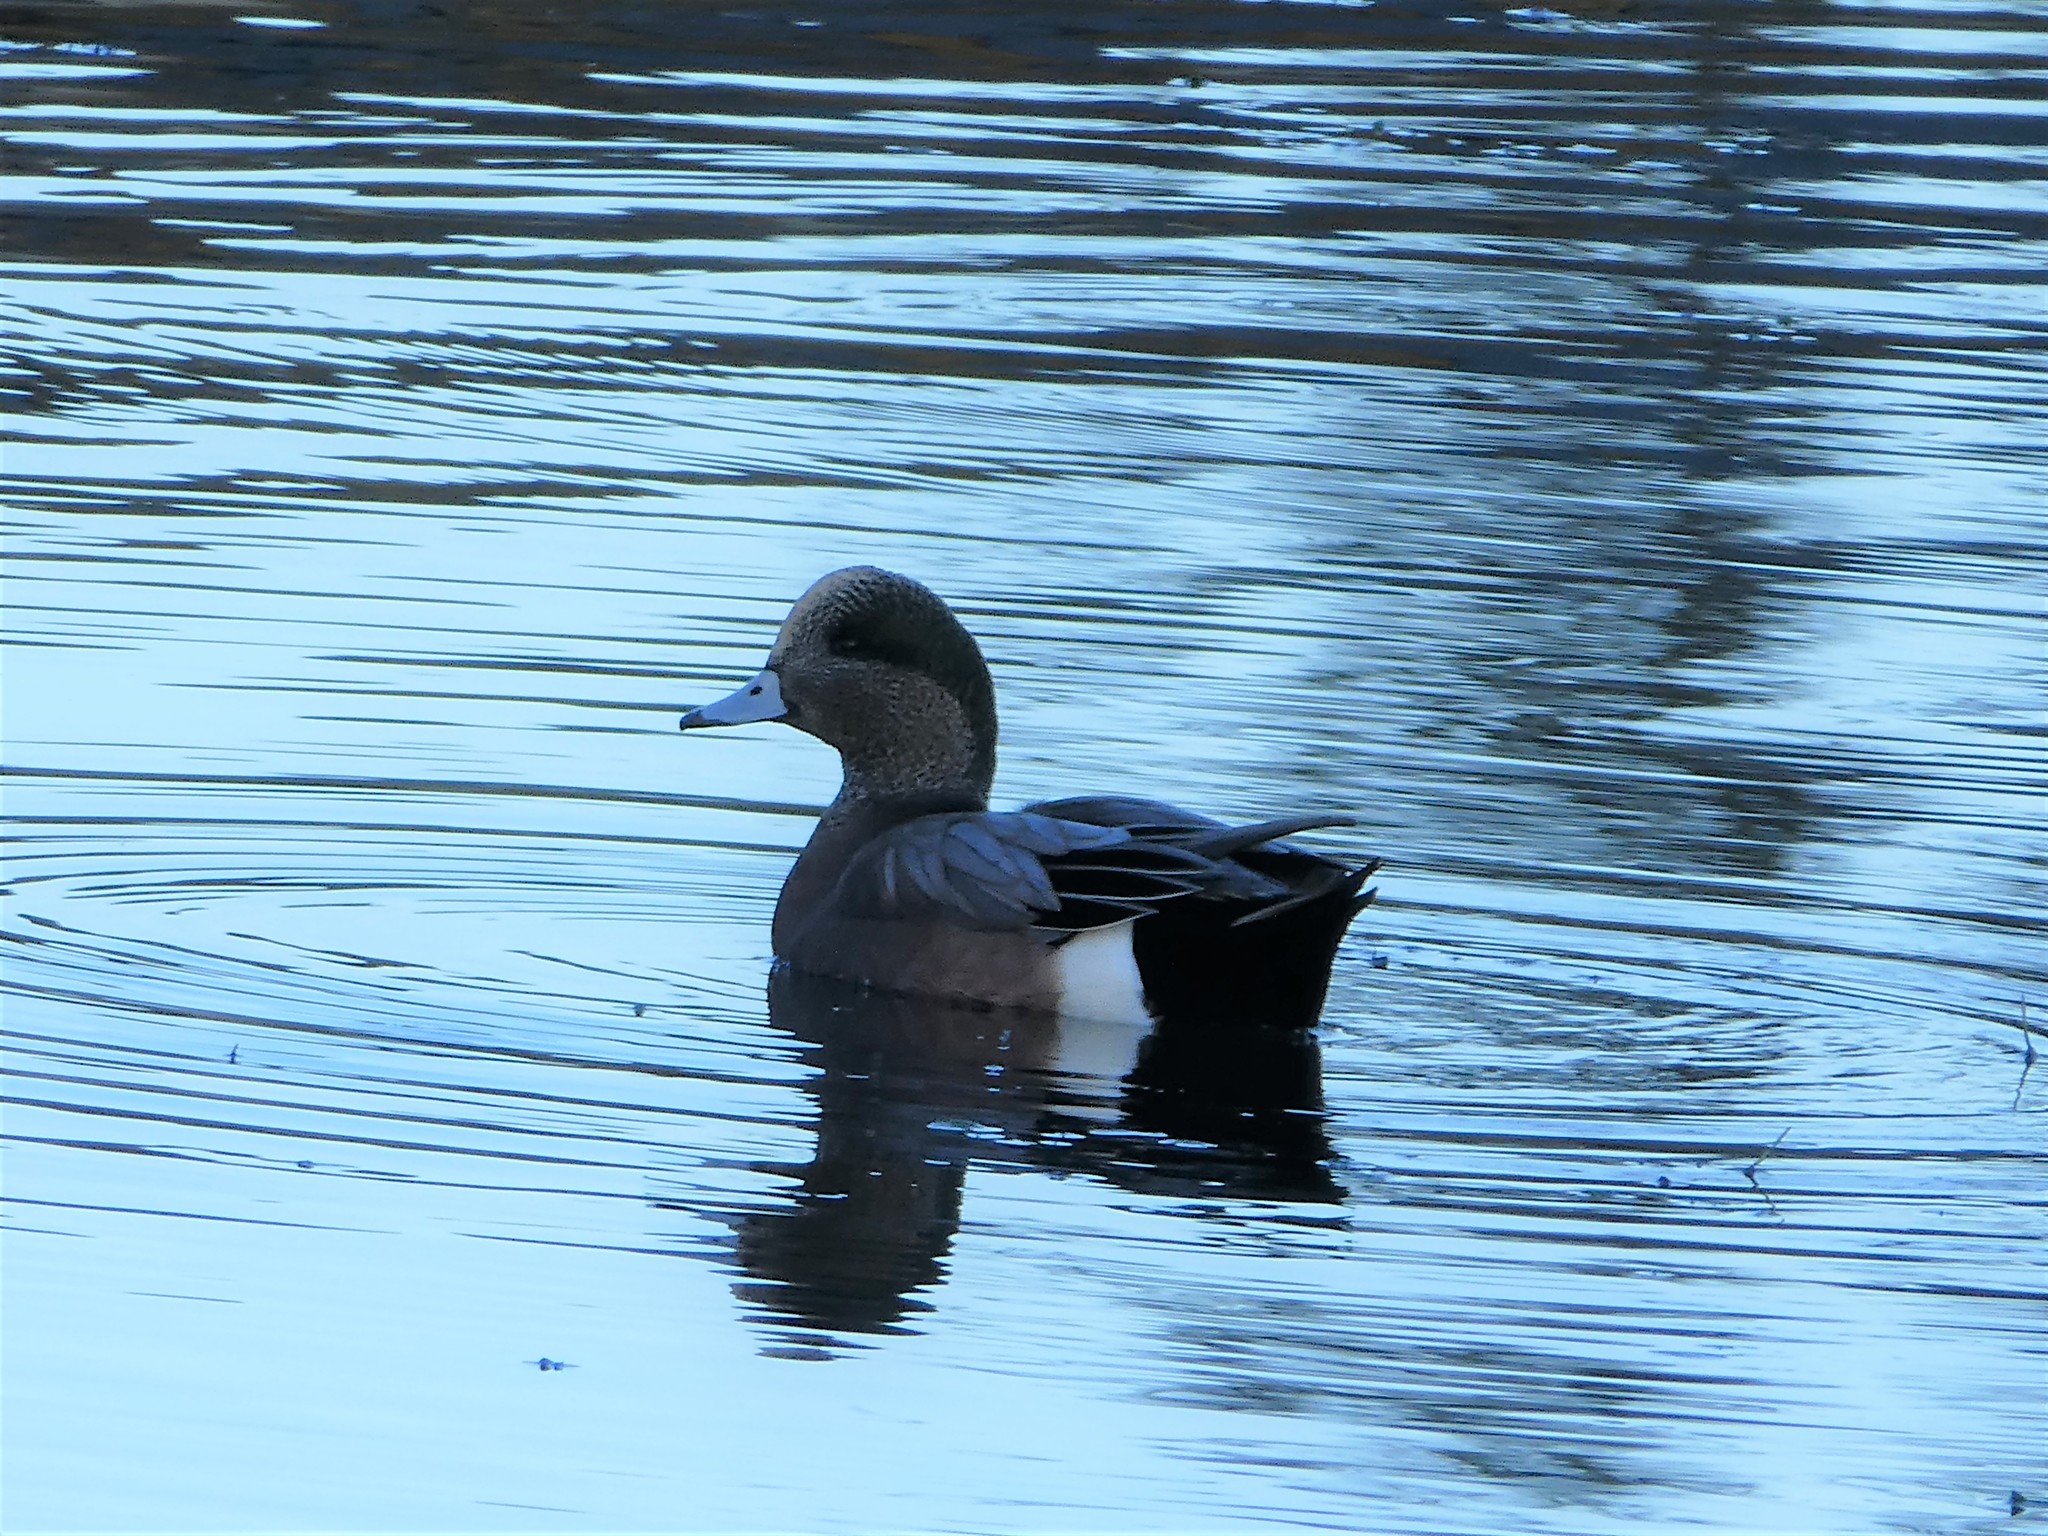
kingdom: Animalia
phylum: Chordata
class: Aves
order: Anseriformes
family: Anatidae
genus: Mareca
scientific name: Mareca americana
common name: American wigeon
